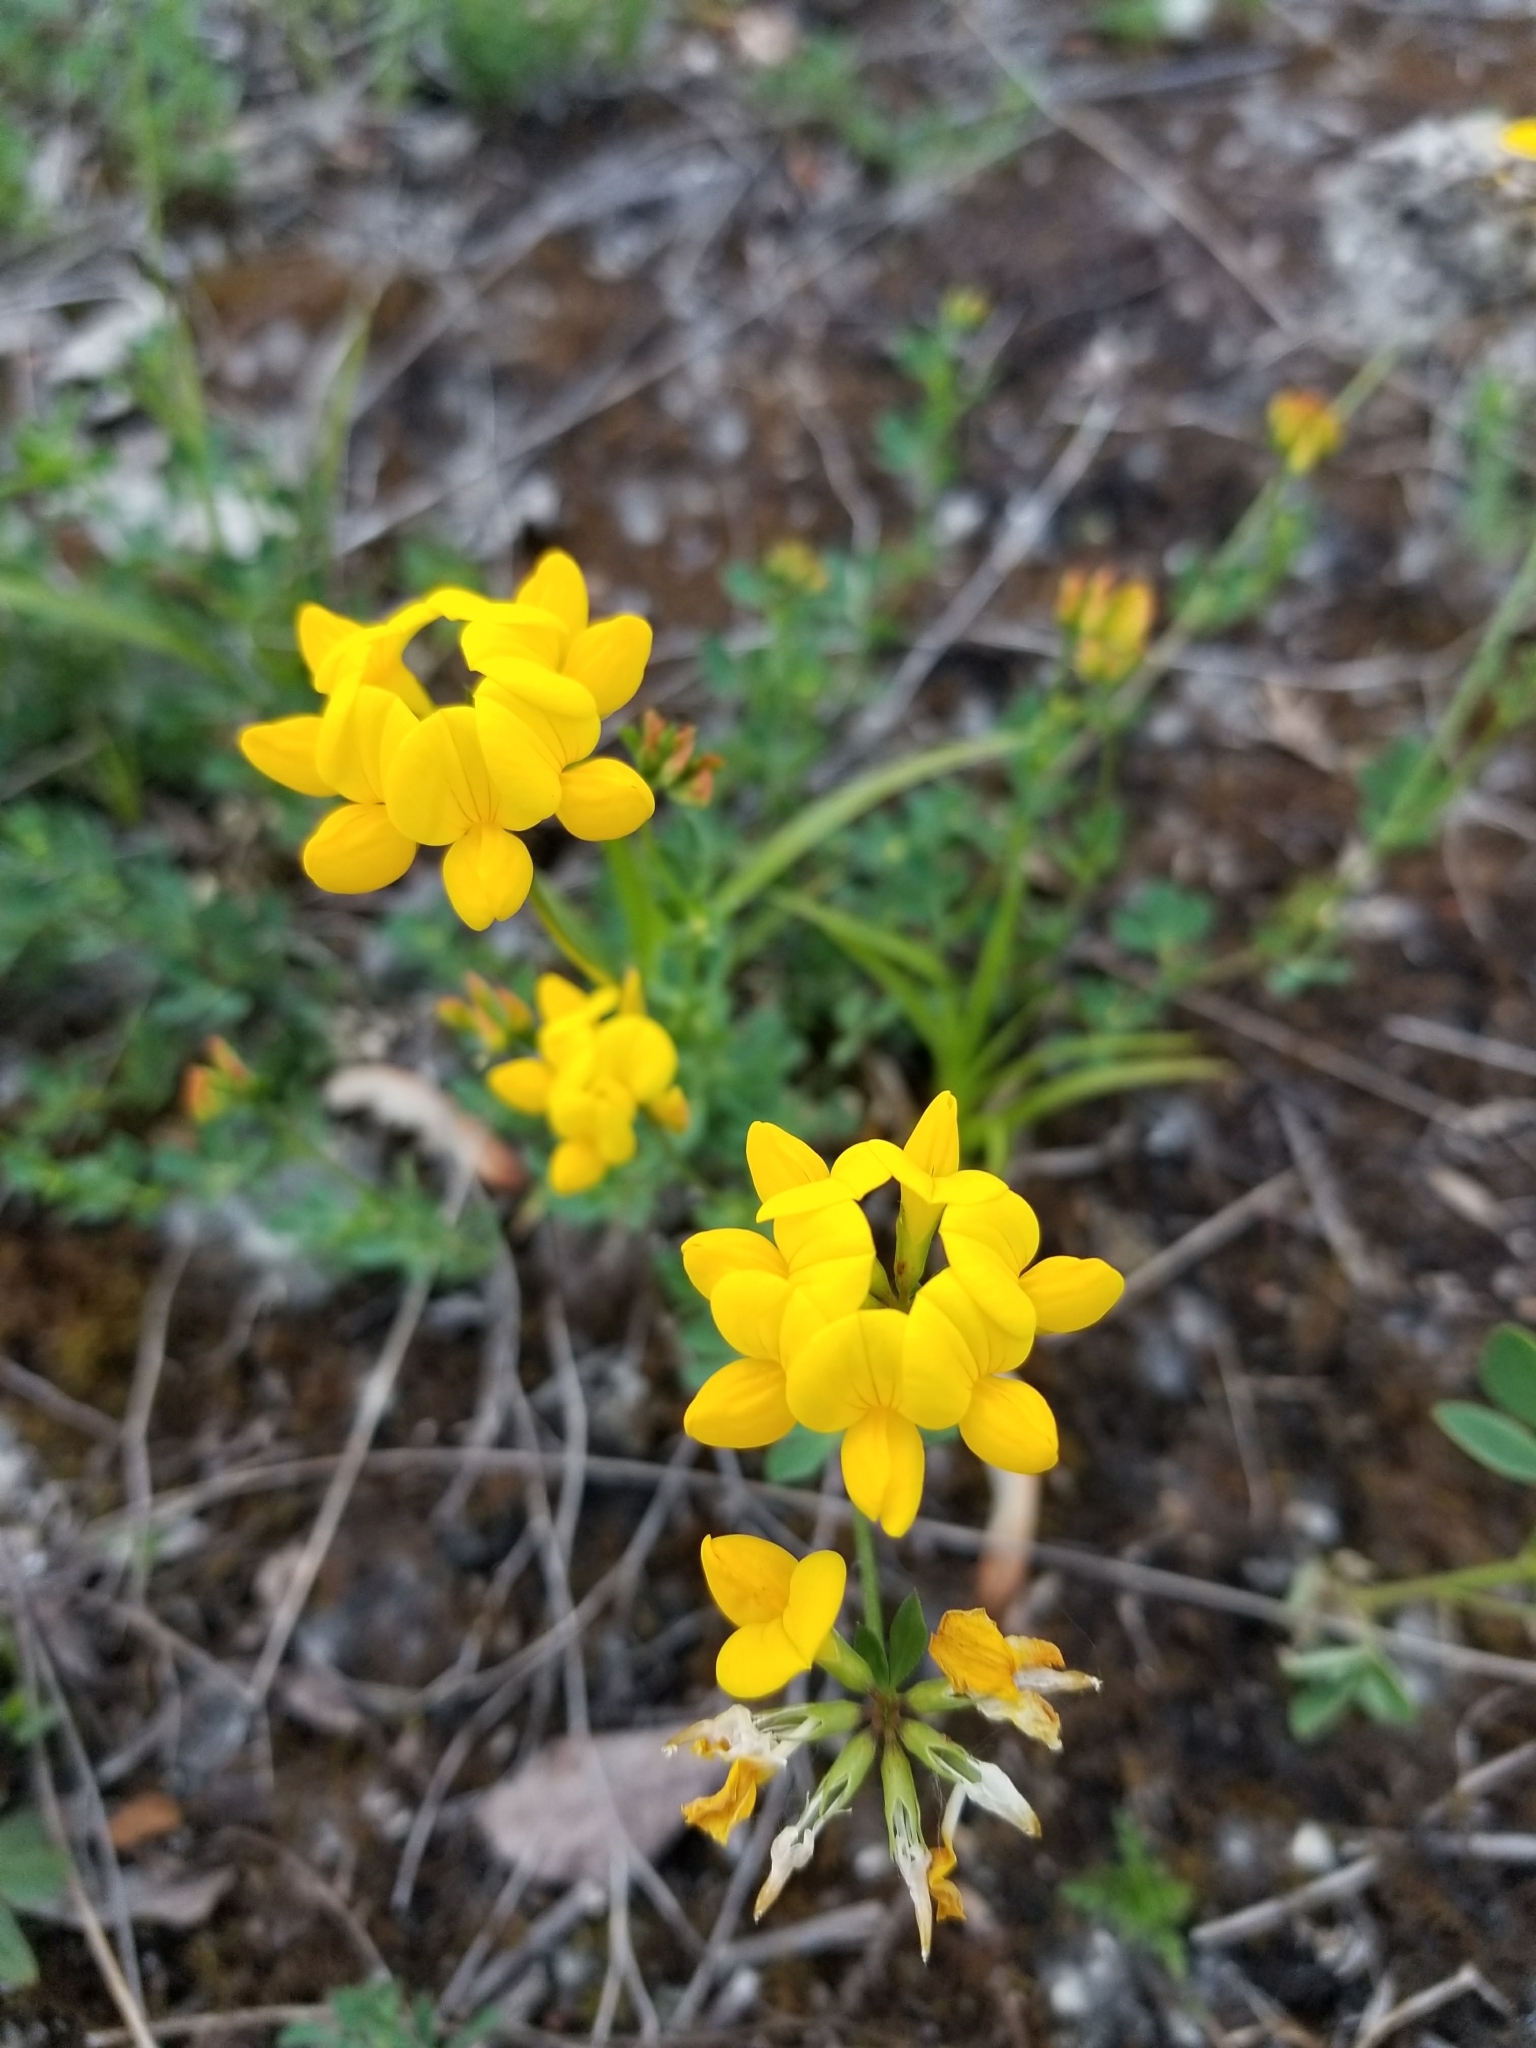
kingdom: Plantae
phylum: Tracheophyta
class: Magnoliopsida
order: Fabales
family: Fabaceae
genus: Lotus
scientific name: Lotus corniculatus
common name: Common bird's-foot-trefoil
